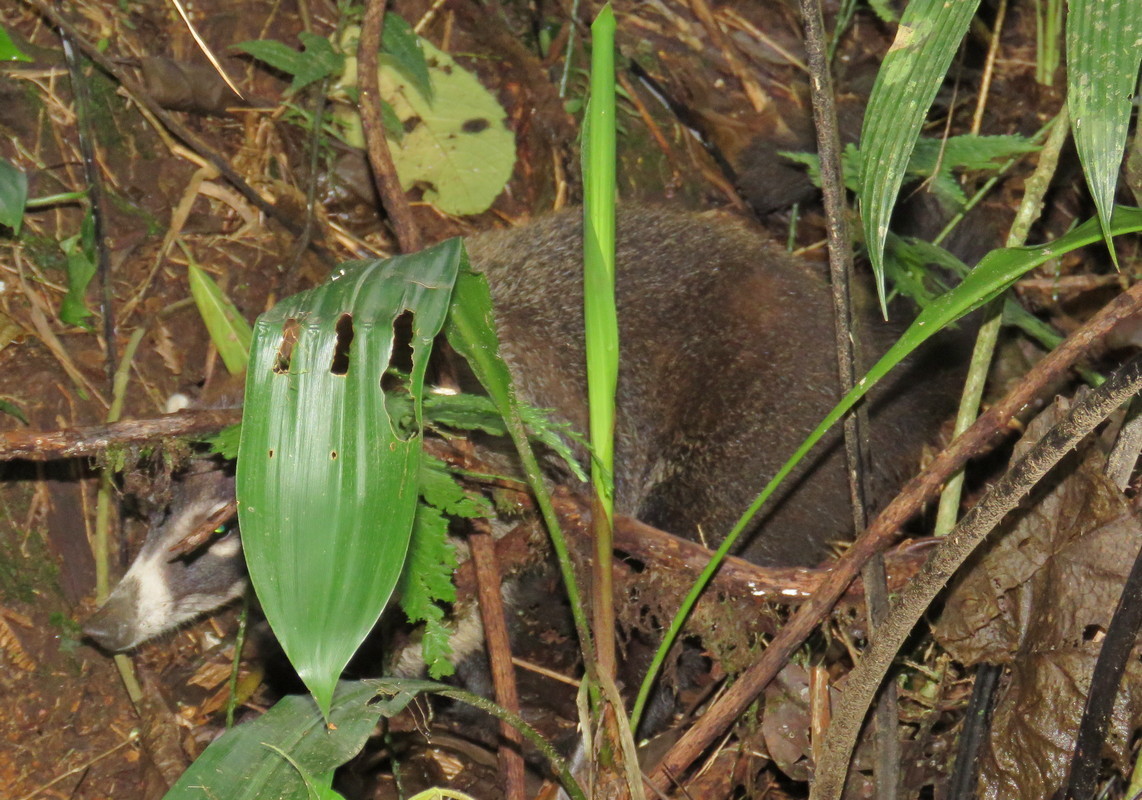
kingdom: Animalia
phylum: Chordata
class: Mammalia
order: Carnivora
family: Procyonidae
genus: Nasua
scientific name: Nasua narica
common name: White-nosed coati
